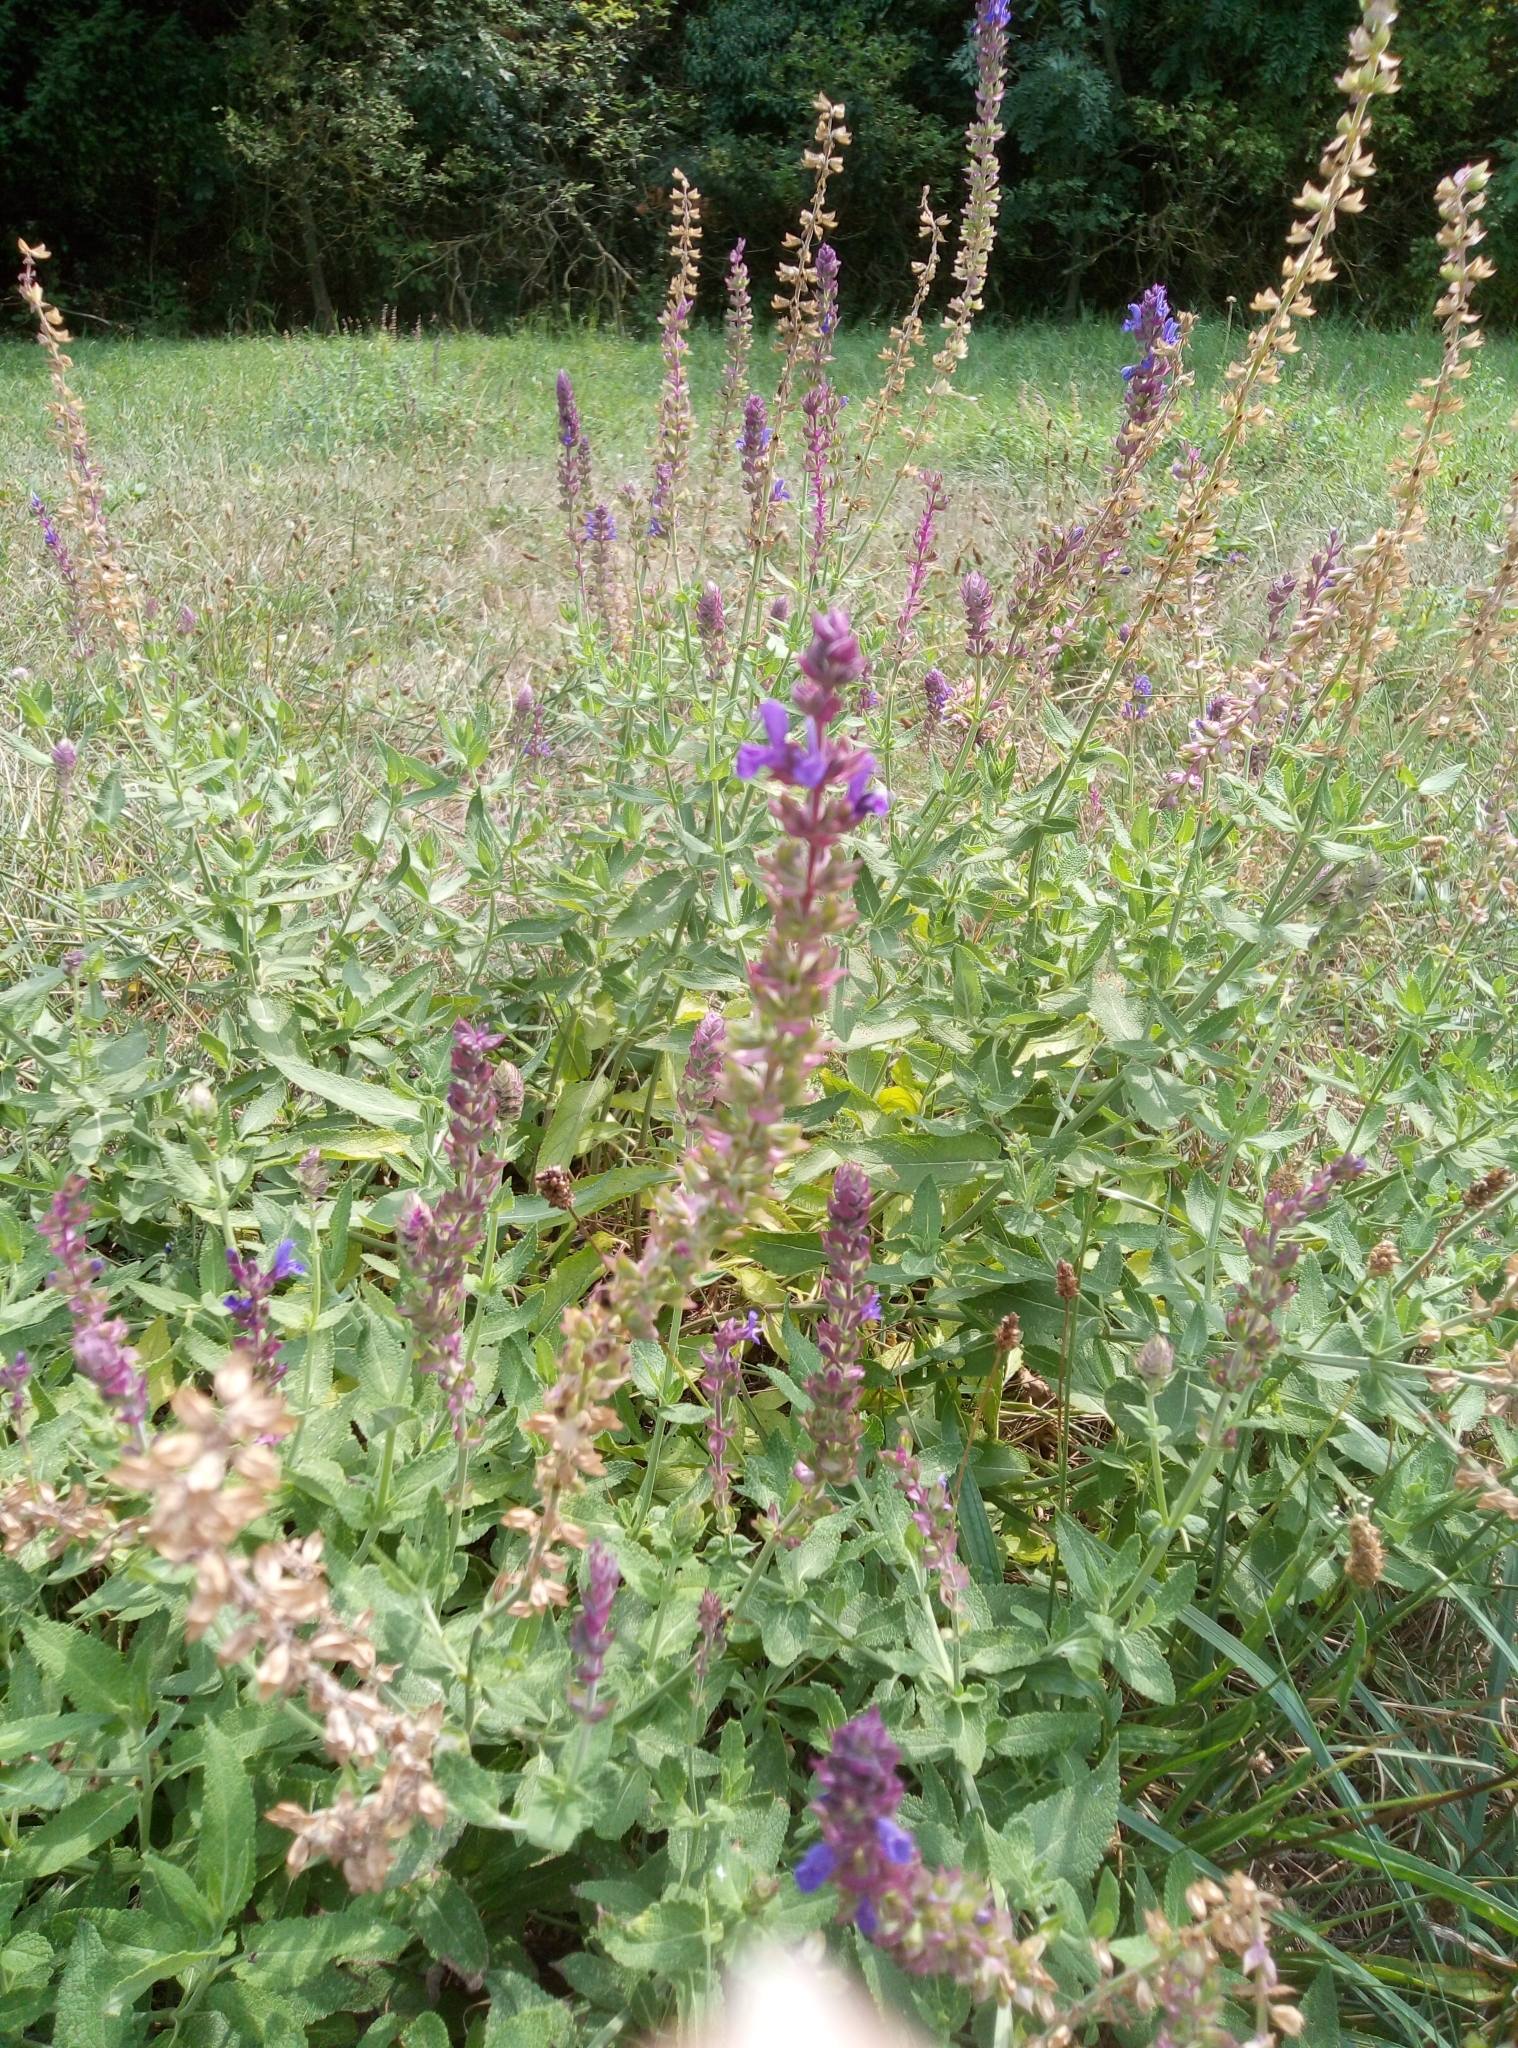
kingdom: Plantae
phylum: Tracheophyta
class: Magnoliopsida
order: Lamiales
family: Lamiaceae
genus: Salvia
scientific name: Salvia nemorosa
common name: Balkan clary
